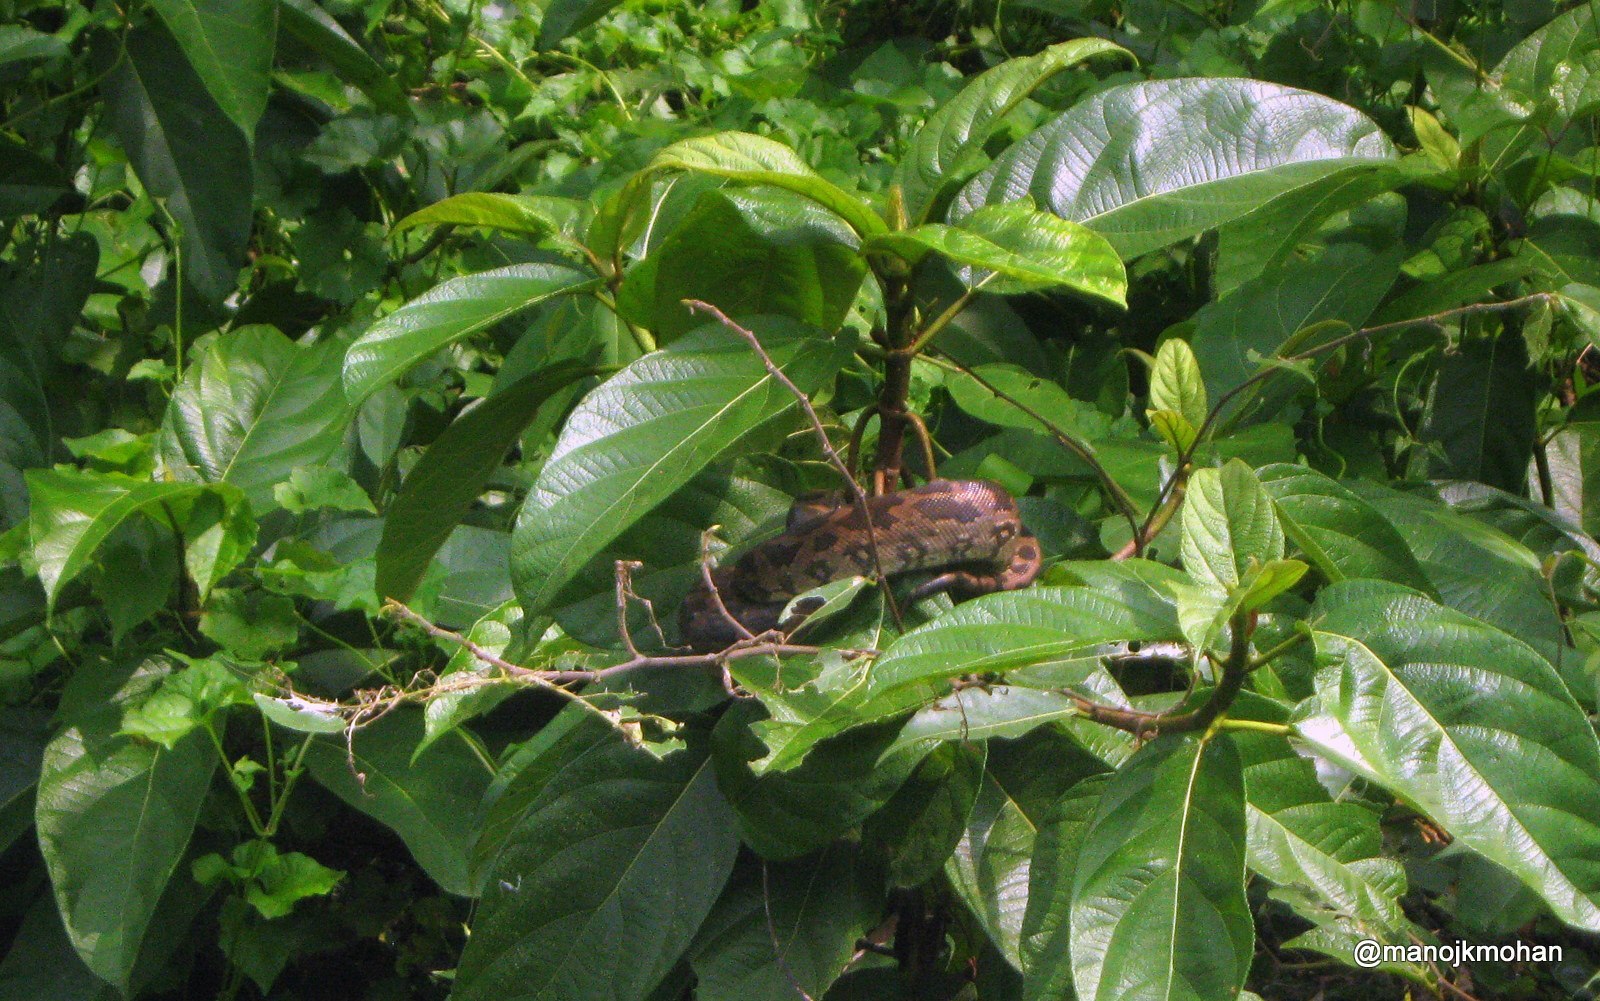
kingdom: Animalia
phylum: Chordata
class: Squamata
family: Pythonidae
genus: Python
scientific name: Python molurus
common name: Indian rock python
